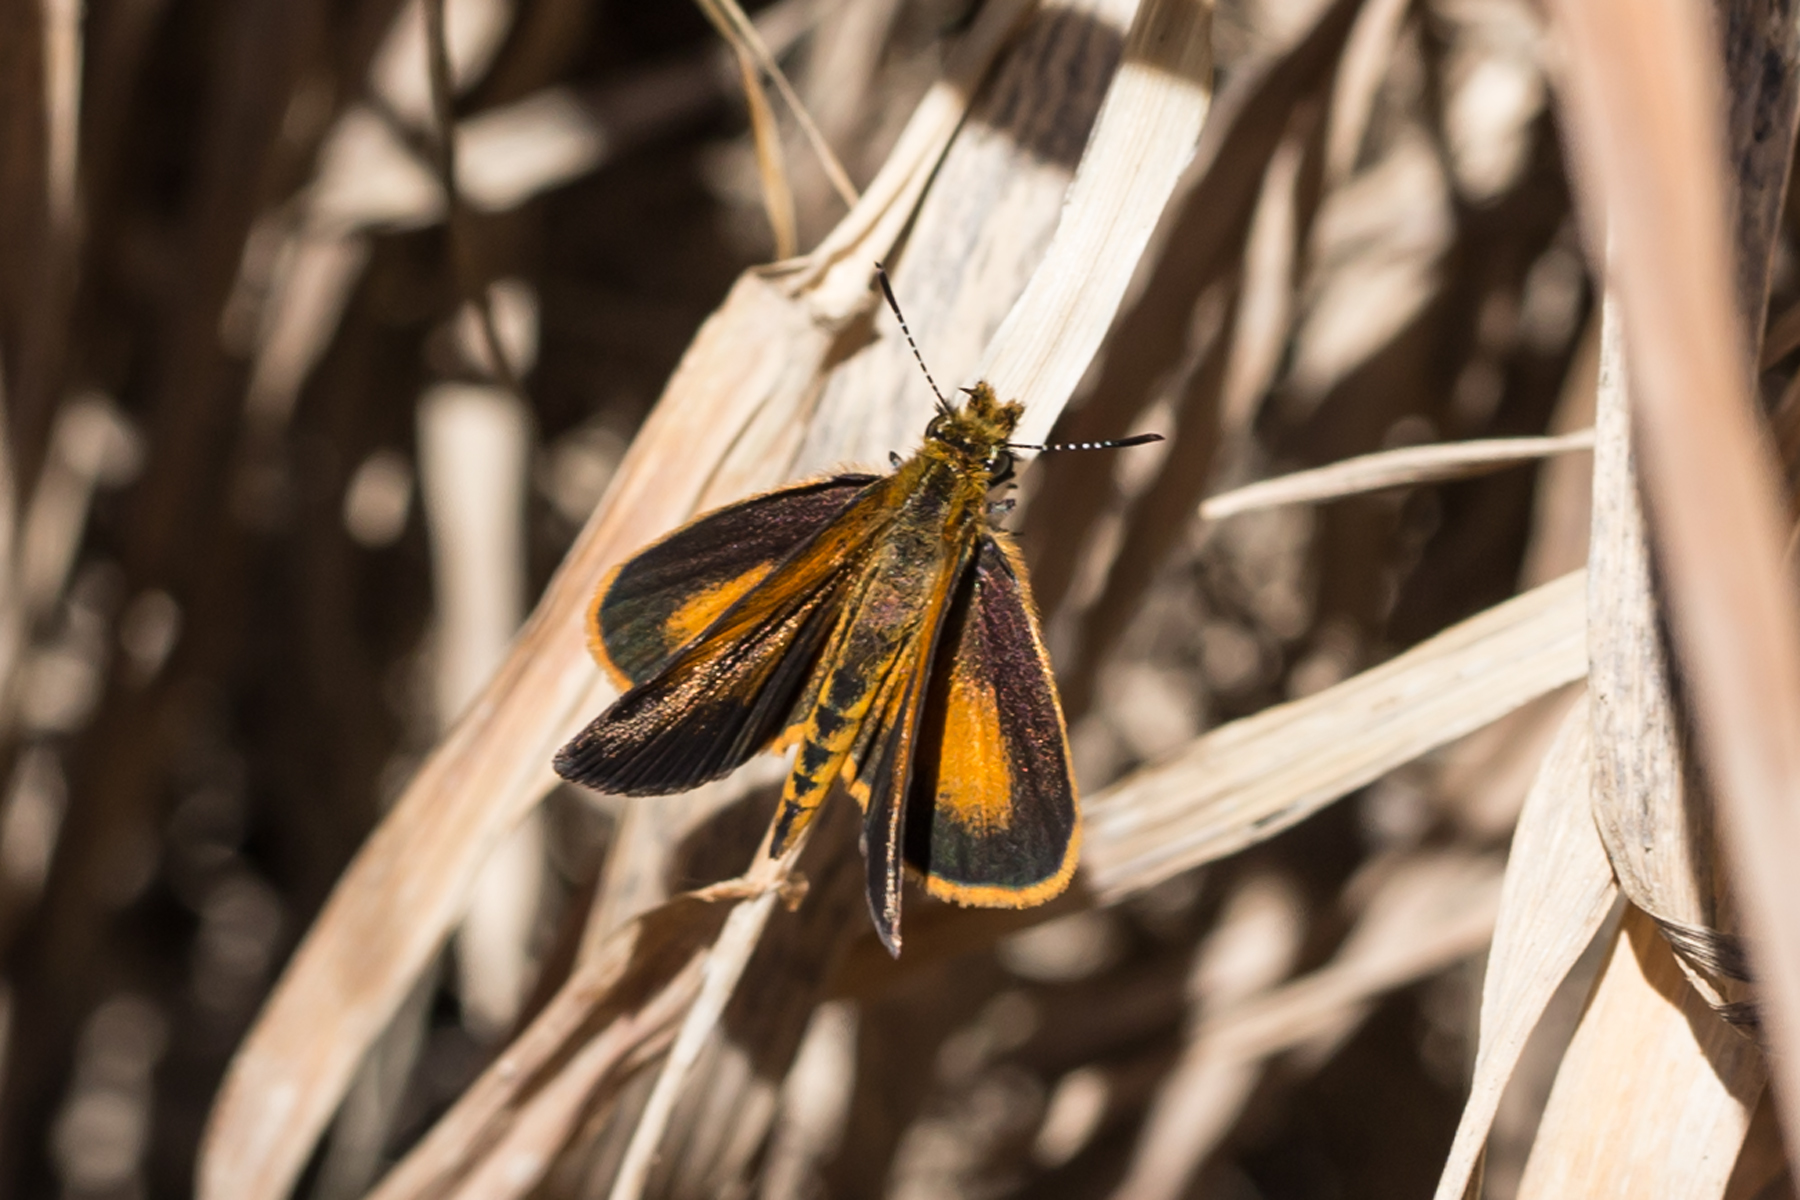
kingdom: Animalia
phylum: Arthropoda
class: Insecta
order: Lepidoptera
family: Hesperiidae
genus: Ancyloxypha
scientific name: Ancyloxypha numitor
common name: Least skipper
